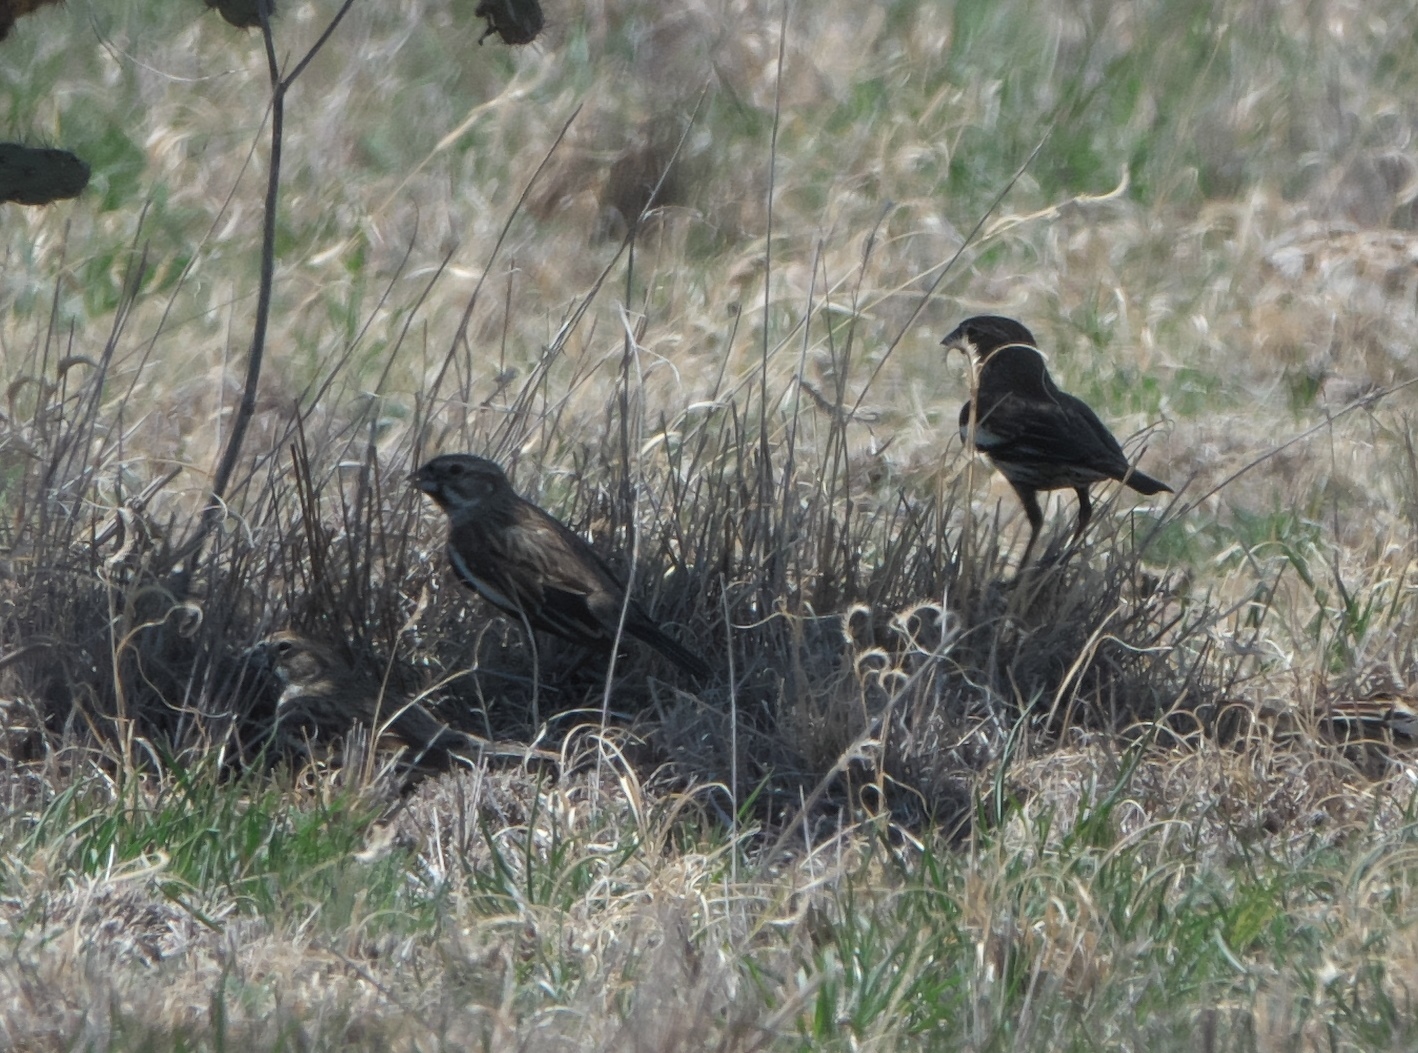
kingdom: Animalia
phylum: Chordata
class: Aves
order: Passeriformes
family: Passerellidae
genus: Calamospiza
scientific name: Calamospiza melanocorys
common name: Lark bunting
